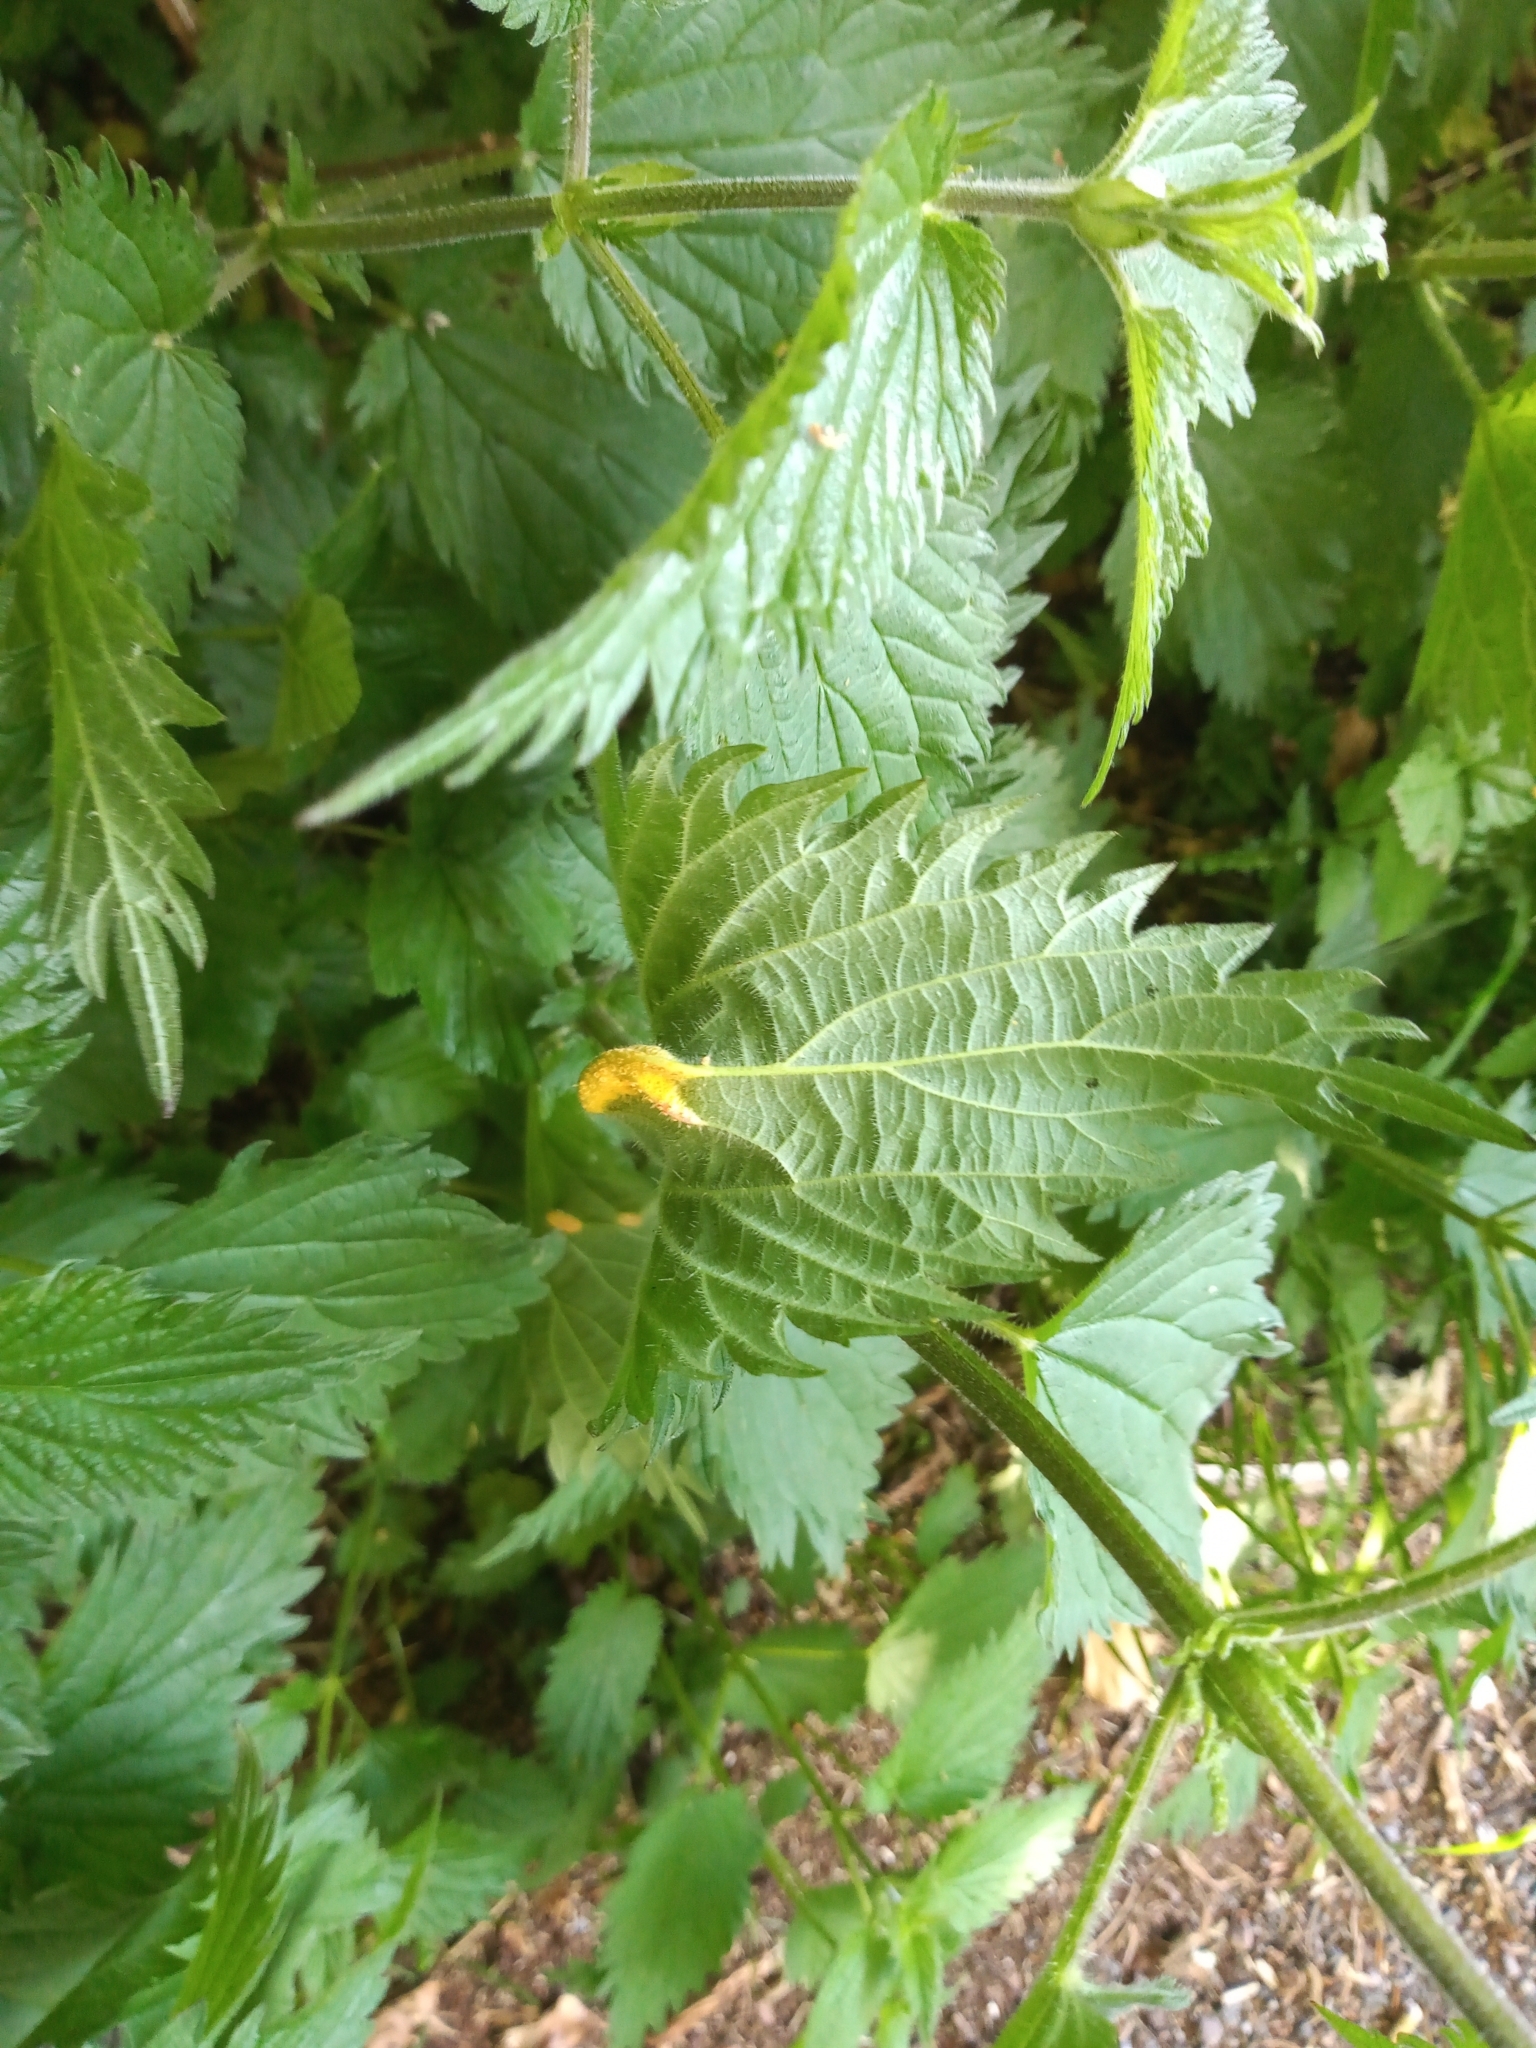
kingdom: Fungi
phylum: Basidiomycota
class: Pucciniomycetes
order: Pucciniales
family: Pucciniaceae
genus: Puccinia
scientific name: Puccinia urticata
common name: Nettle clustercup rust fungus
